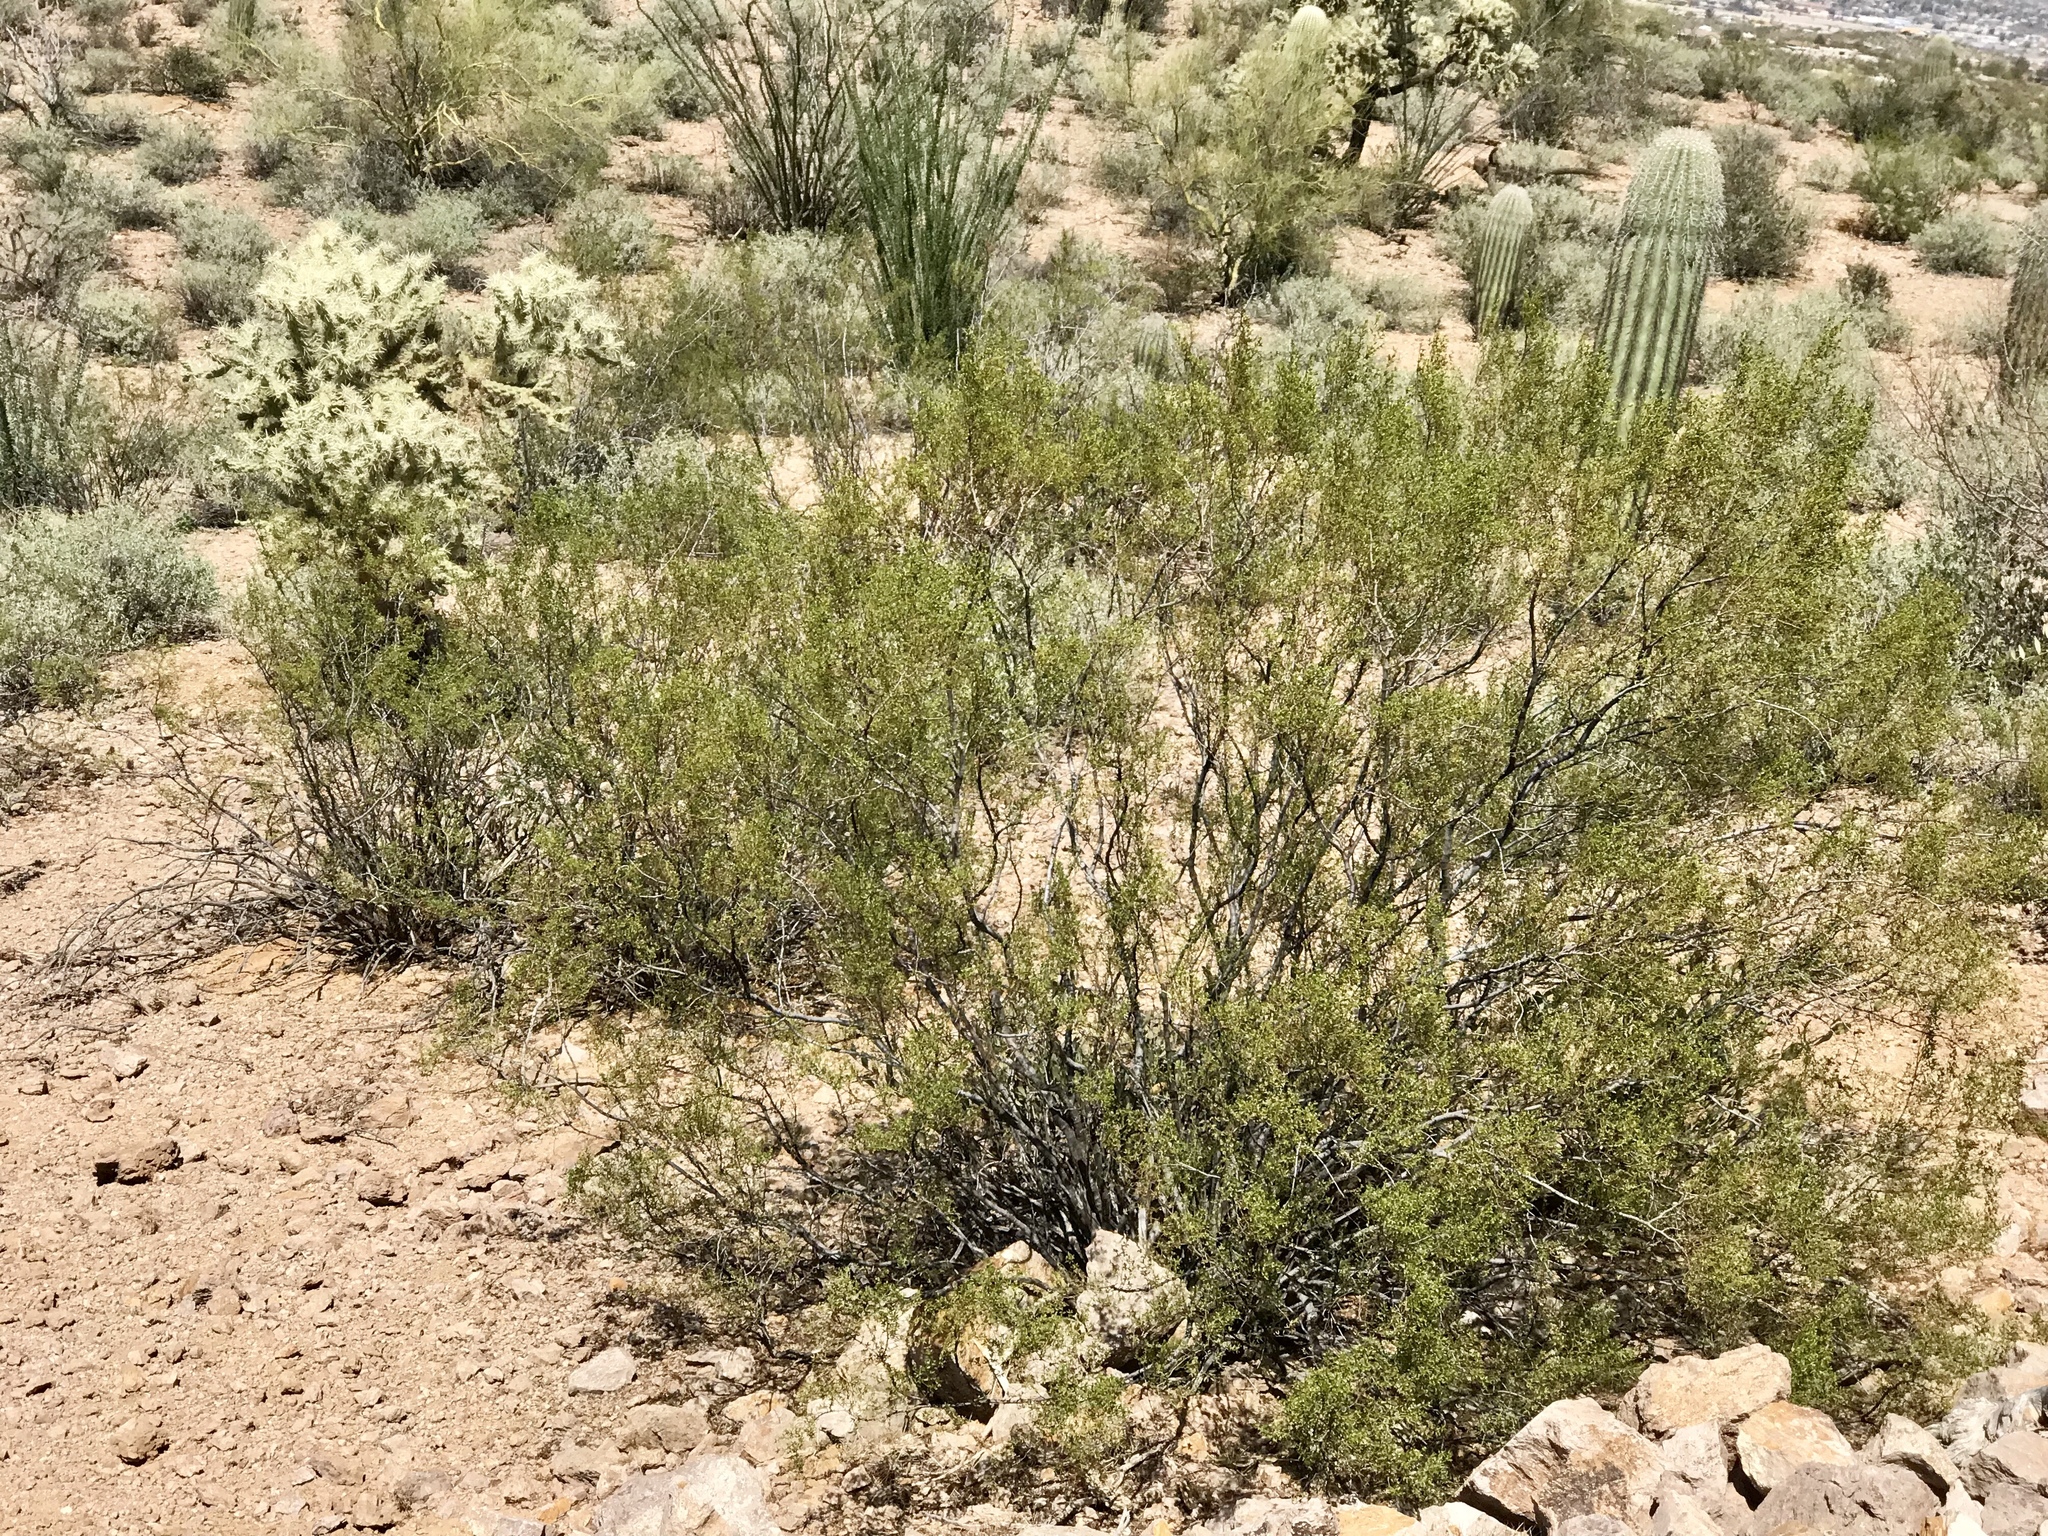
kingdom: Plantae
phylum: Tracheophyta
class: Magnoliopsida
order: Zygophyllales
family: Zygophyllaceae
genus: Larrea
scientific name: Larrea tridentata
